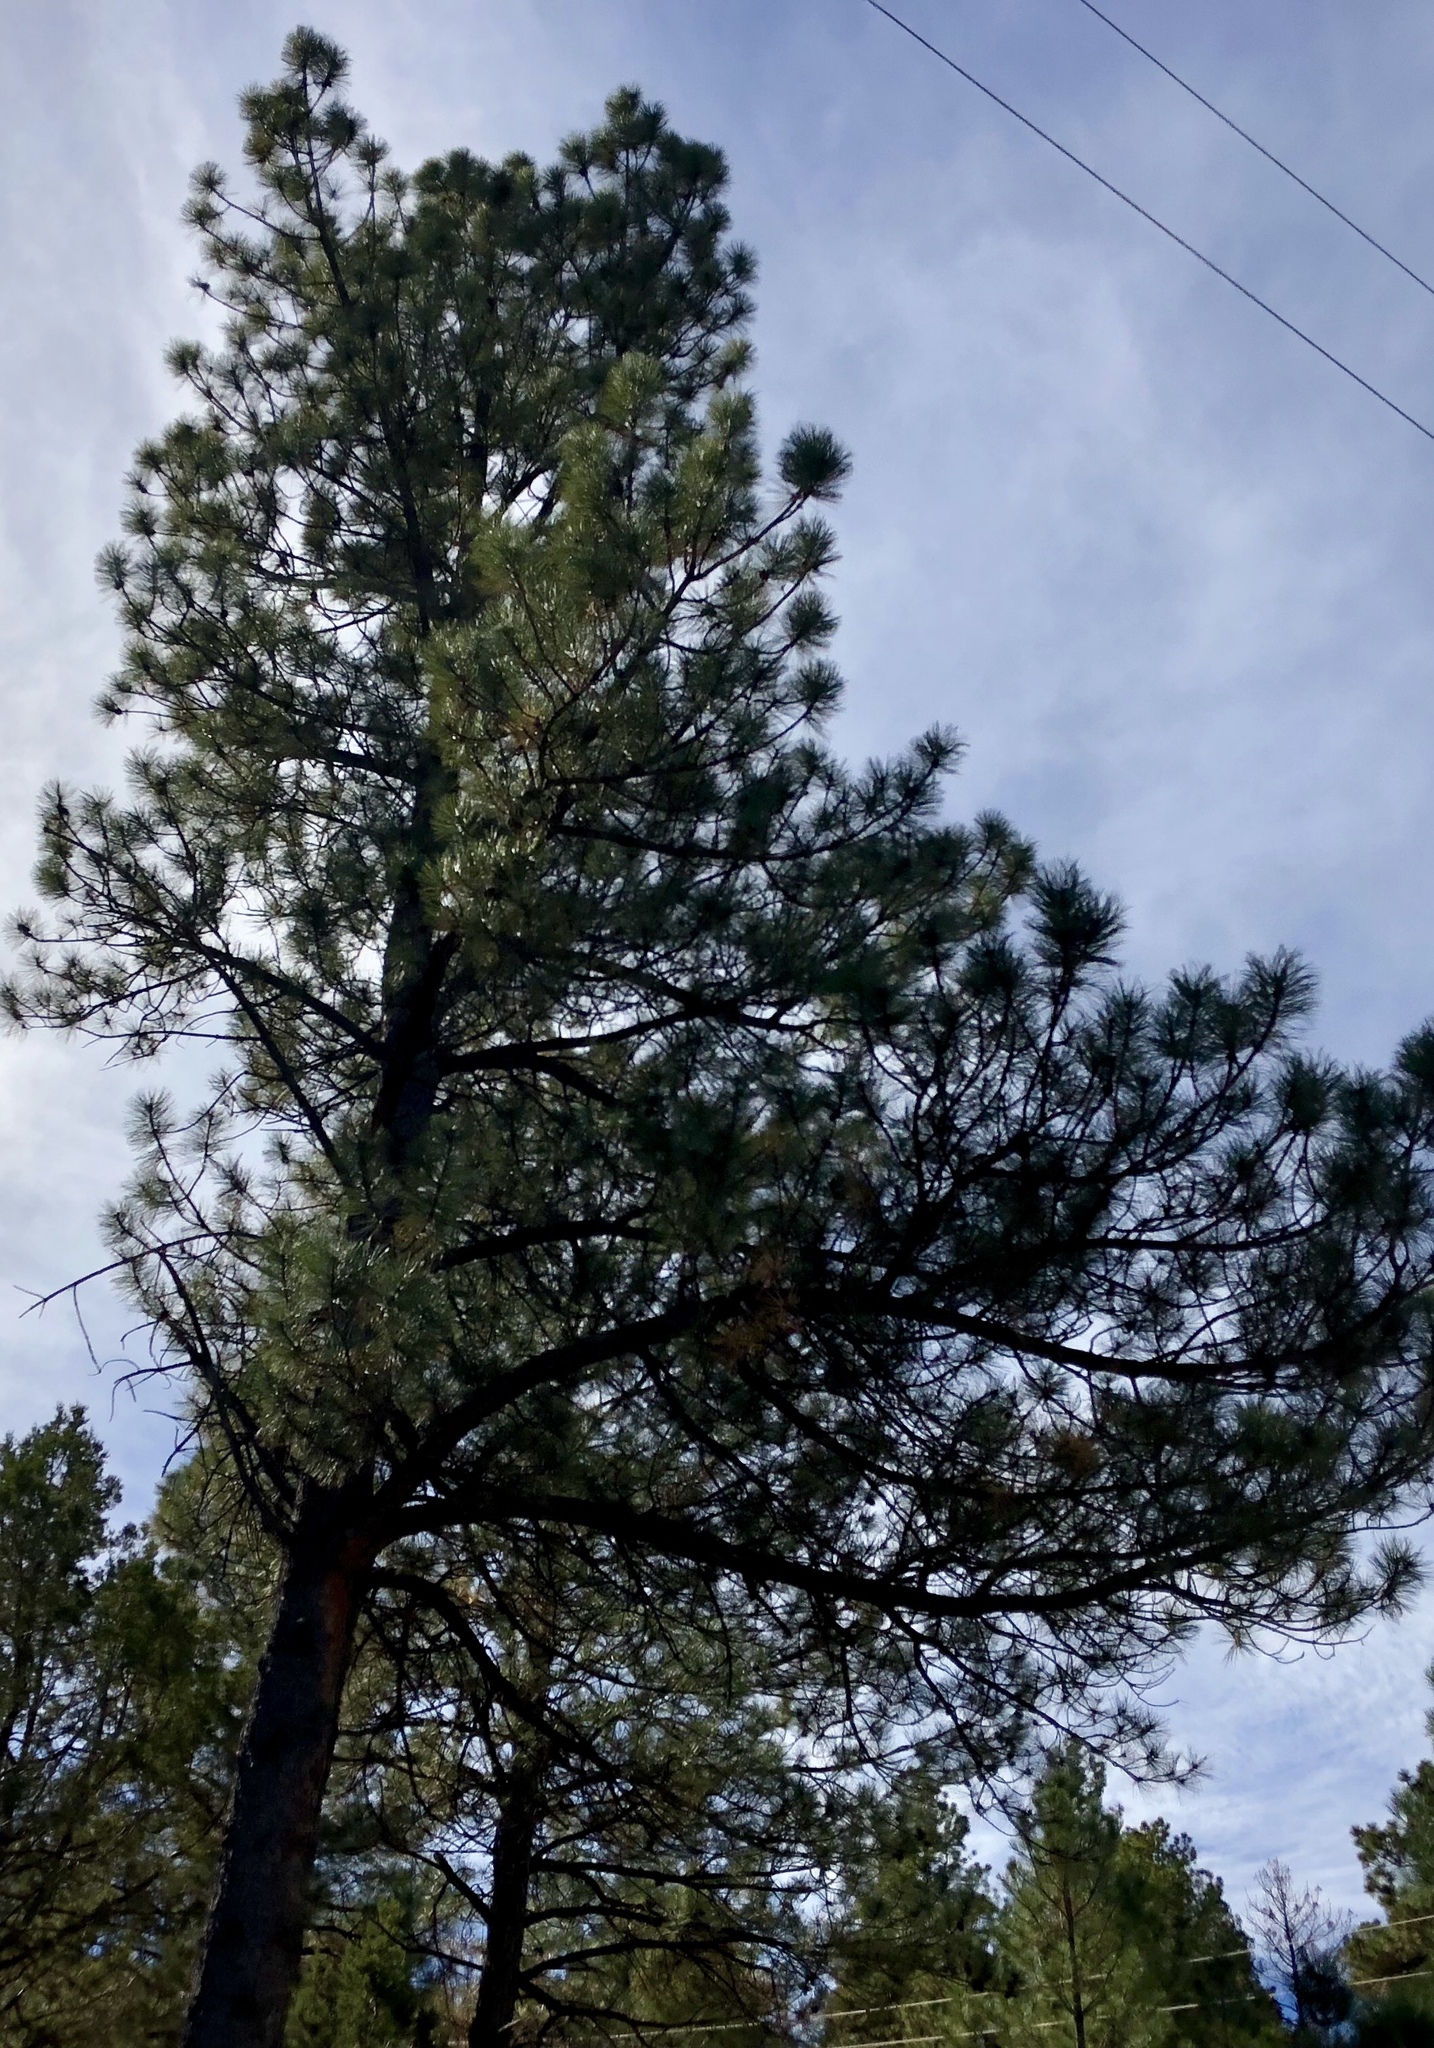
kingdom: Plantae
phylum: Tracheophyta
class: Pinopsida
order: Pinales
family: Pinaceae
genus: Pinus
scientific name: Pinus ponderosa
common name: Western yellow-pine
